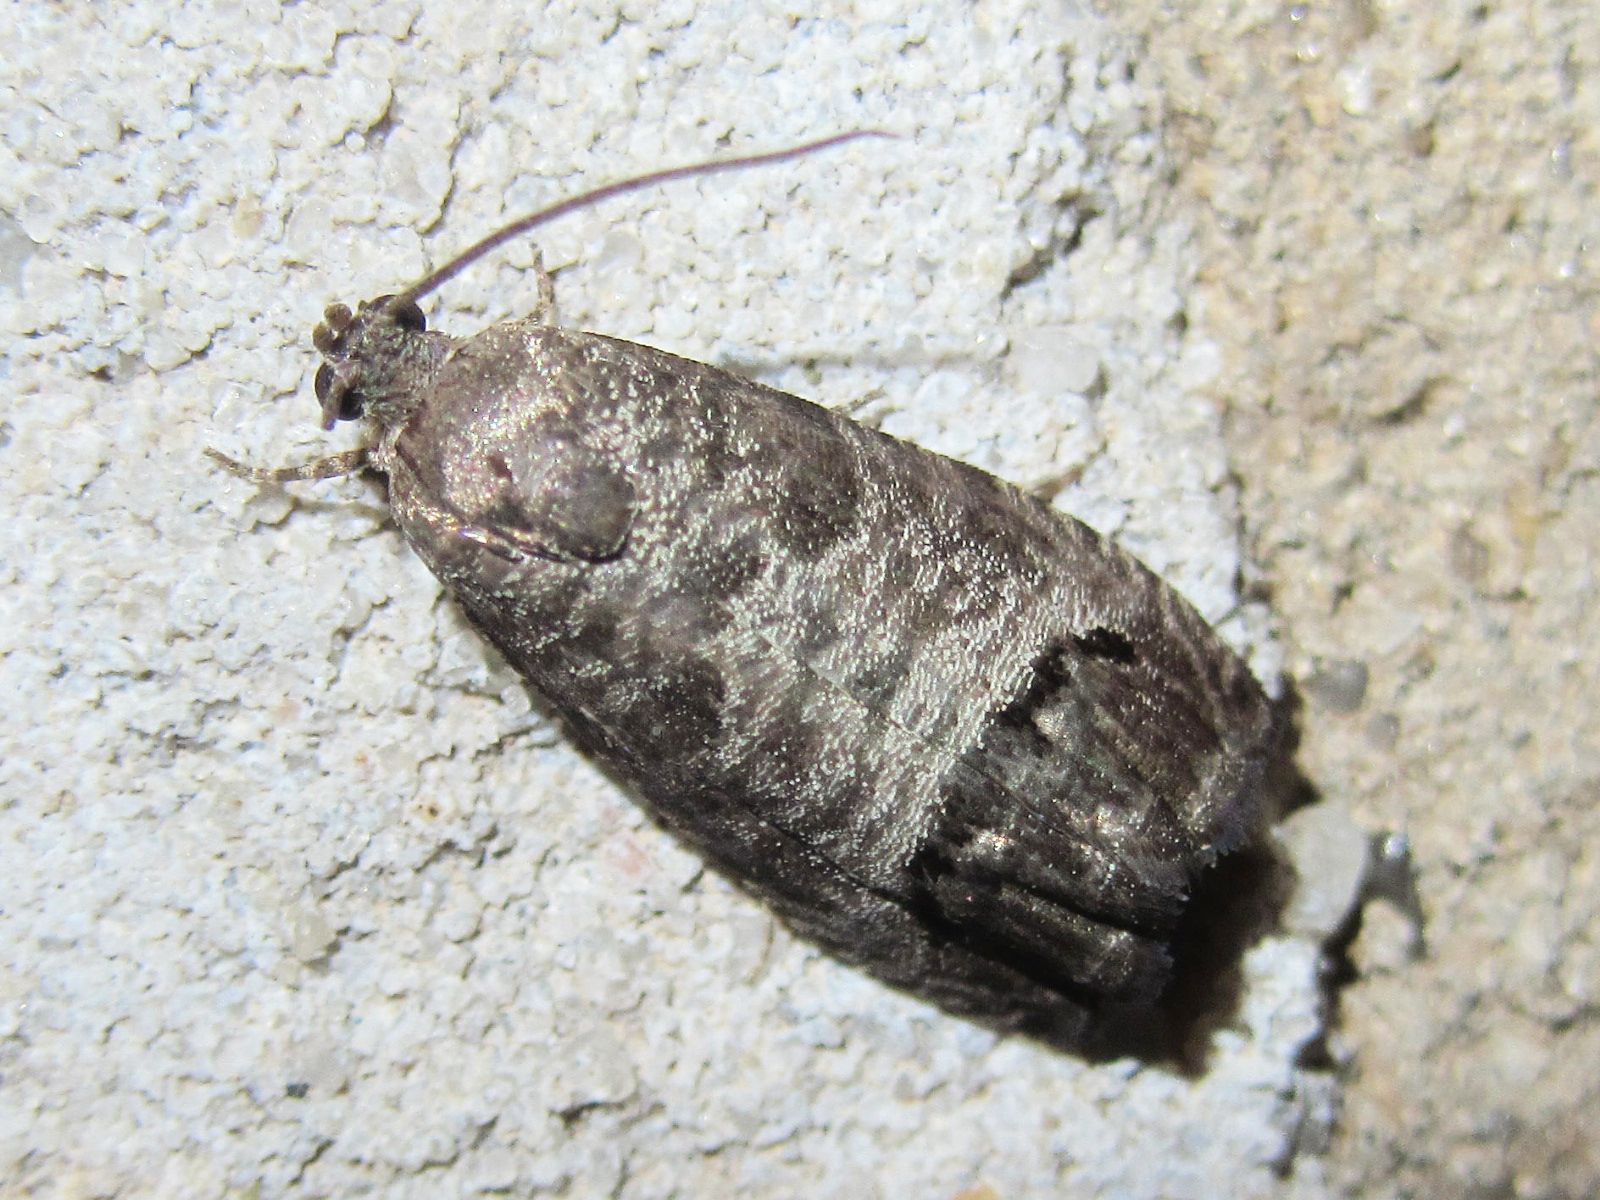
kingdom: Animalia
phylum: Arthropoda
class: Insecta
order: Lepidoptera
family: Tortricidae
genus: Cydia
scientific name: Cydia pomonella
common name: Codling moth
